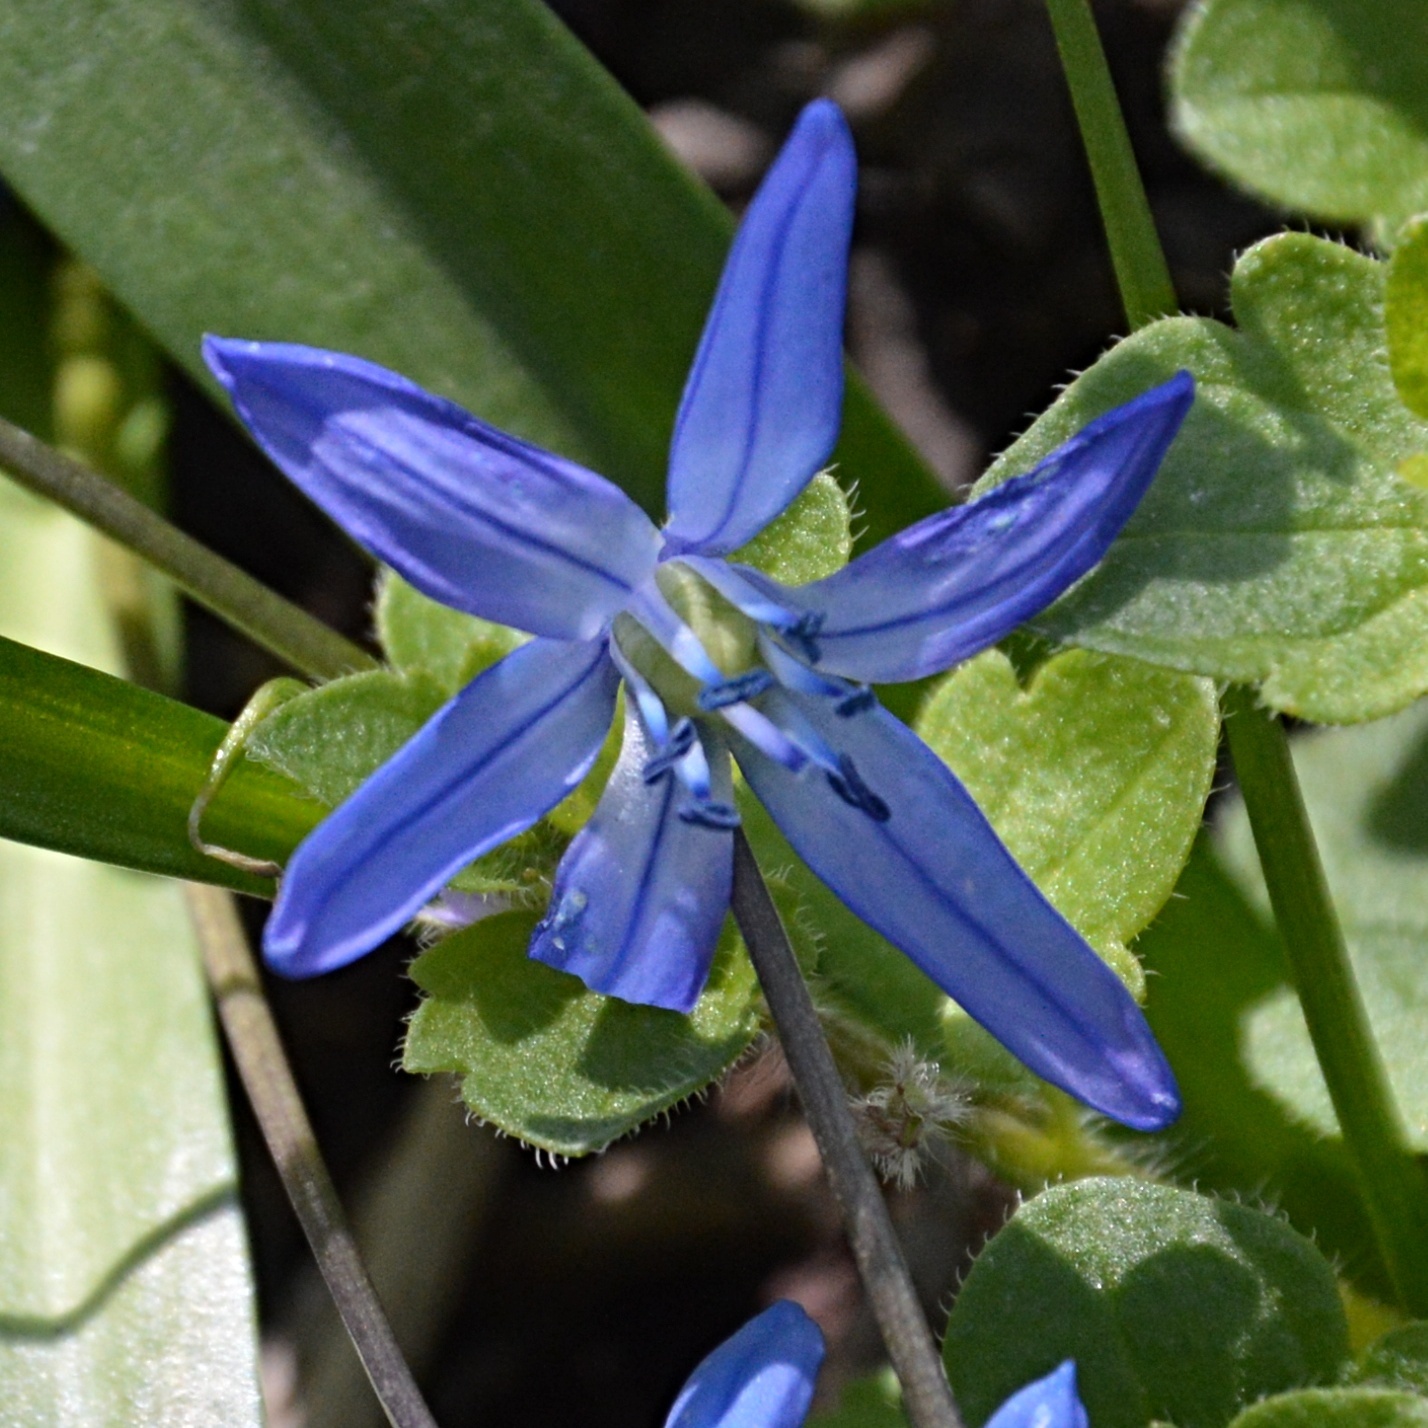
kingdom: Plantae
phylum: Tracheophyta
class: Liliopsida
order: Asparagales
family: Asparagaceae
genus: Scilla
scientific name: Scilla siberica
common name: Siberian squill
